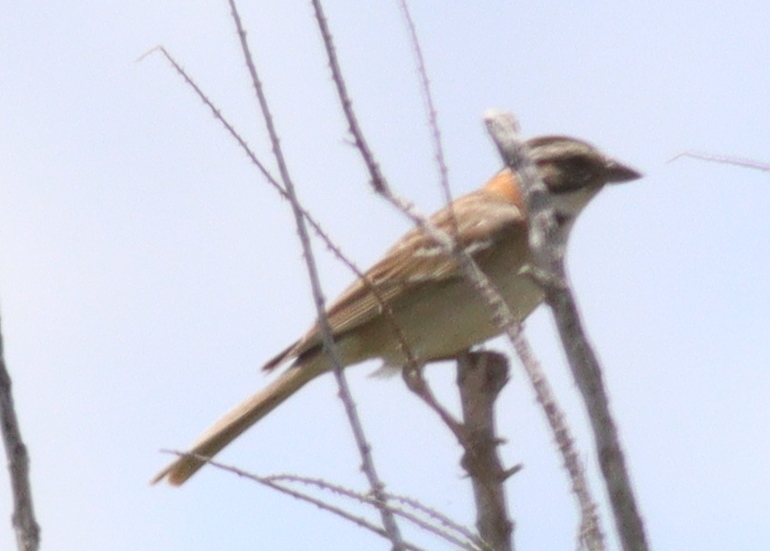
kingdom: Animalia
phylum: Chordata
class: Aves
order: Passeriformes
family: Passerellidae
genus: Zonotrichia
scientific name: Zonotrichia capensis
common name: Rufous-collared sparrow
